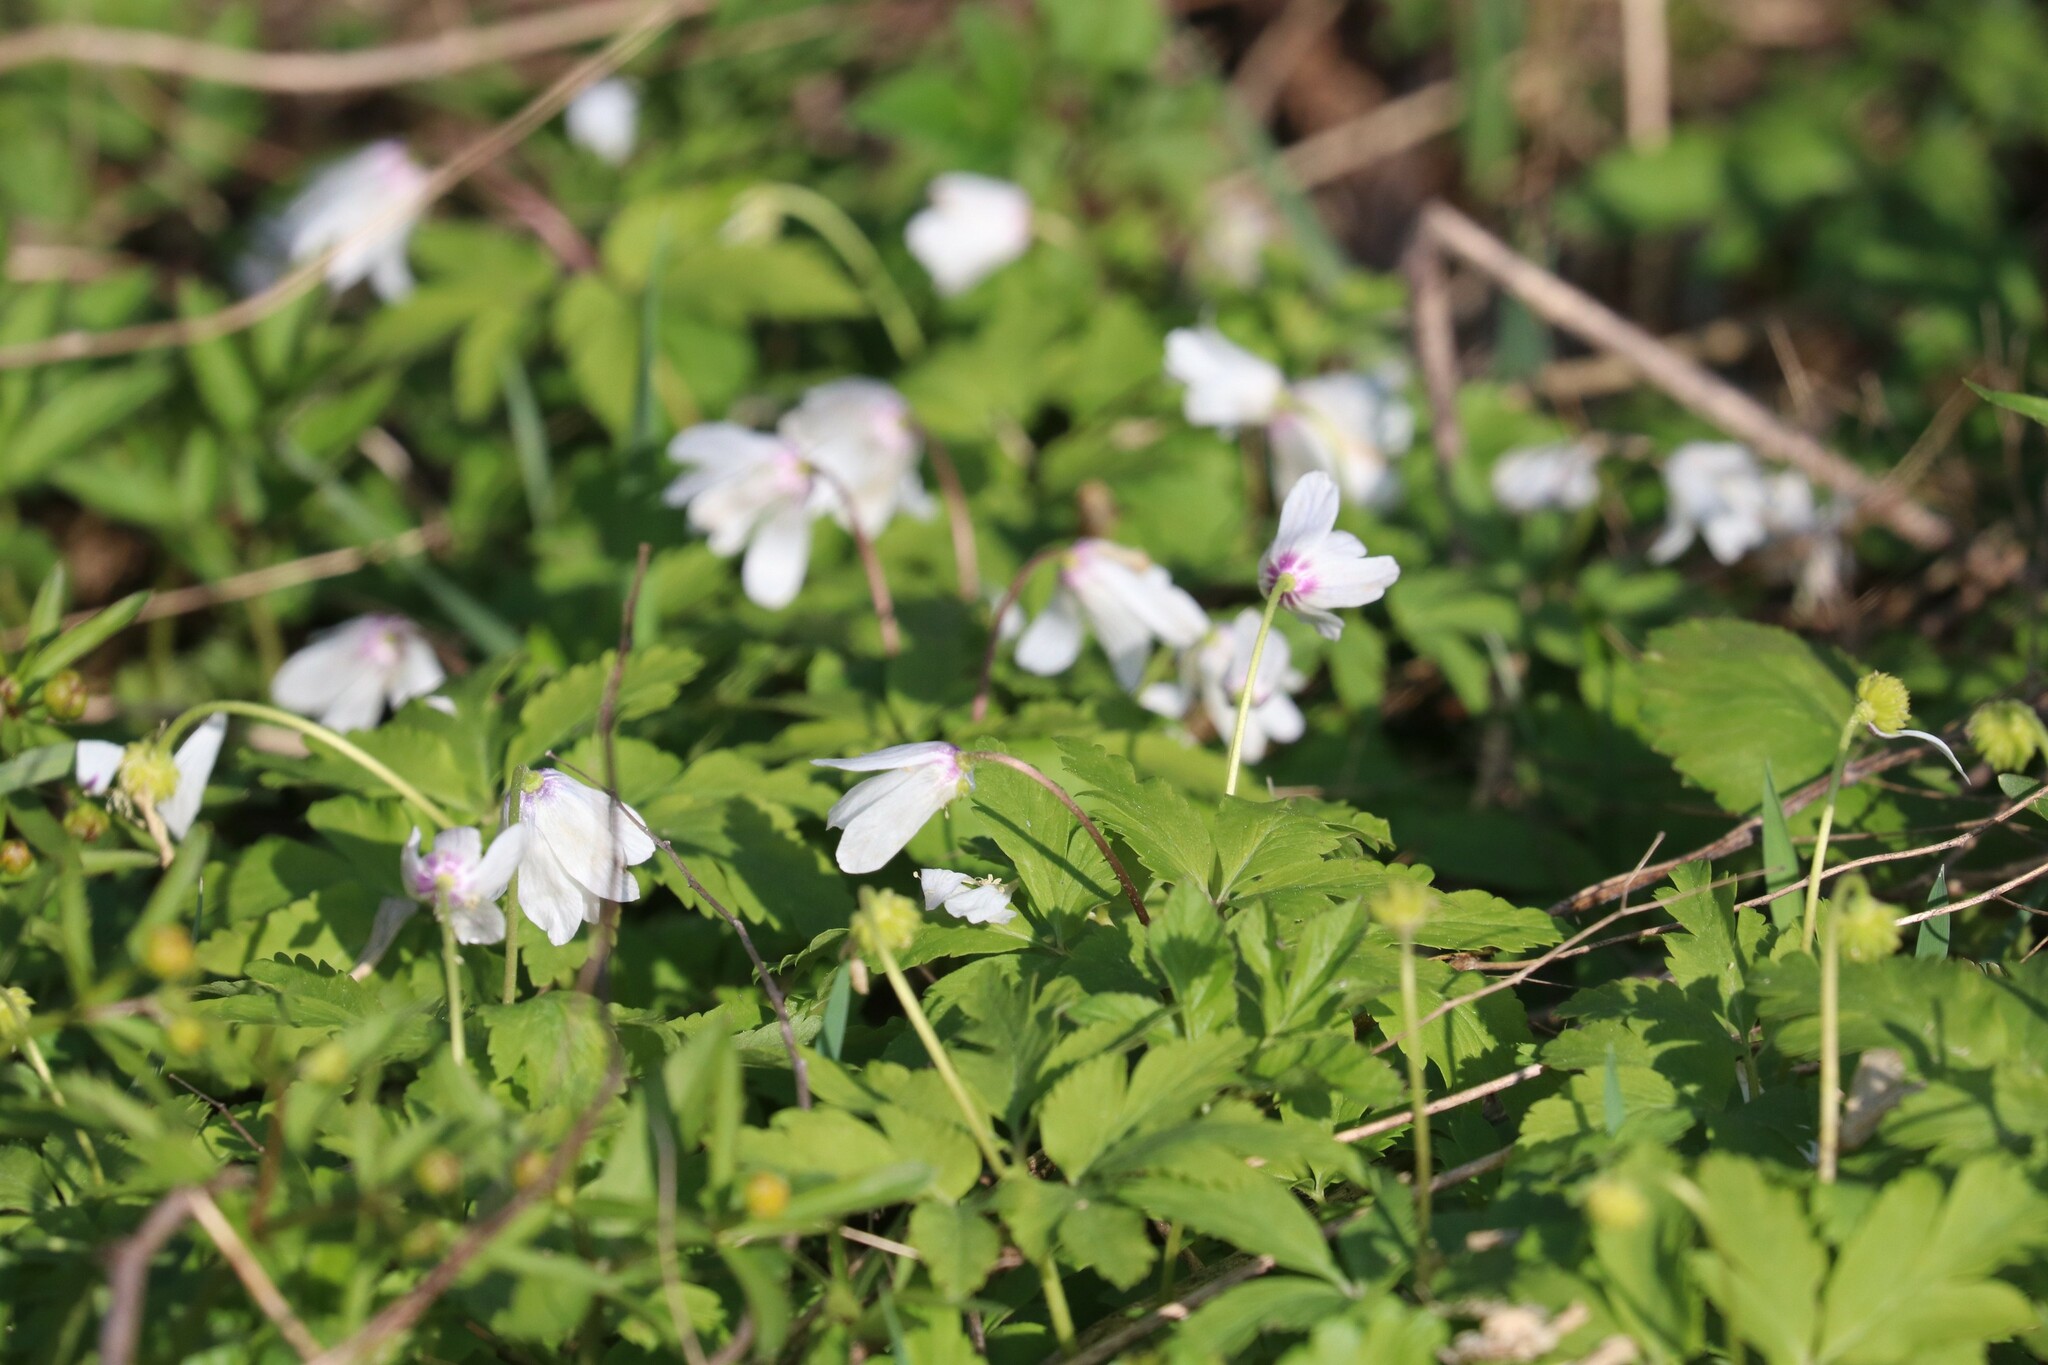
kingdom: Plantae
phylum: Tracheophyta
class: Magnoliopsida
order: Ranunculales
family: Ranunculaceae
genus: Anemone
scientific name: Anemone altaica
